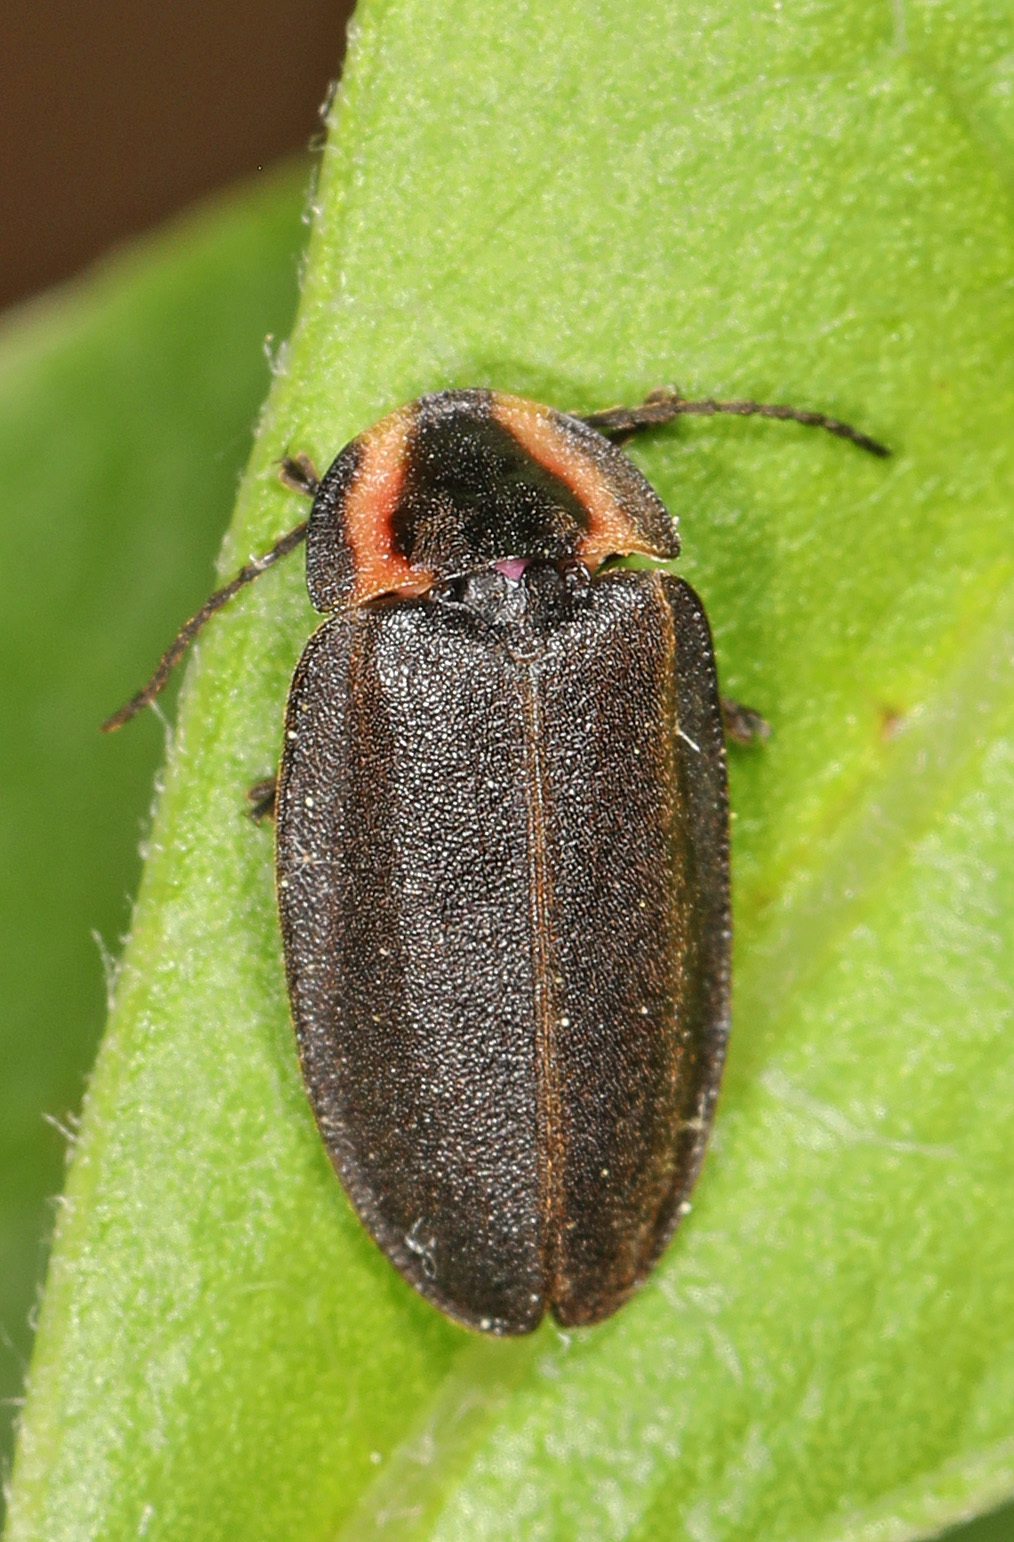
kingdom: Animalia
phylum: Arthropoda
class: Insecta
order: Coleoptera
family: Lampyridae
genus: Photinus
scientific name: Photinus corrusca
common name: Winter firefly
